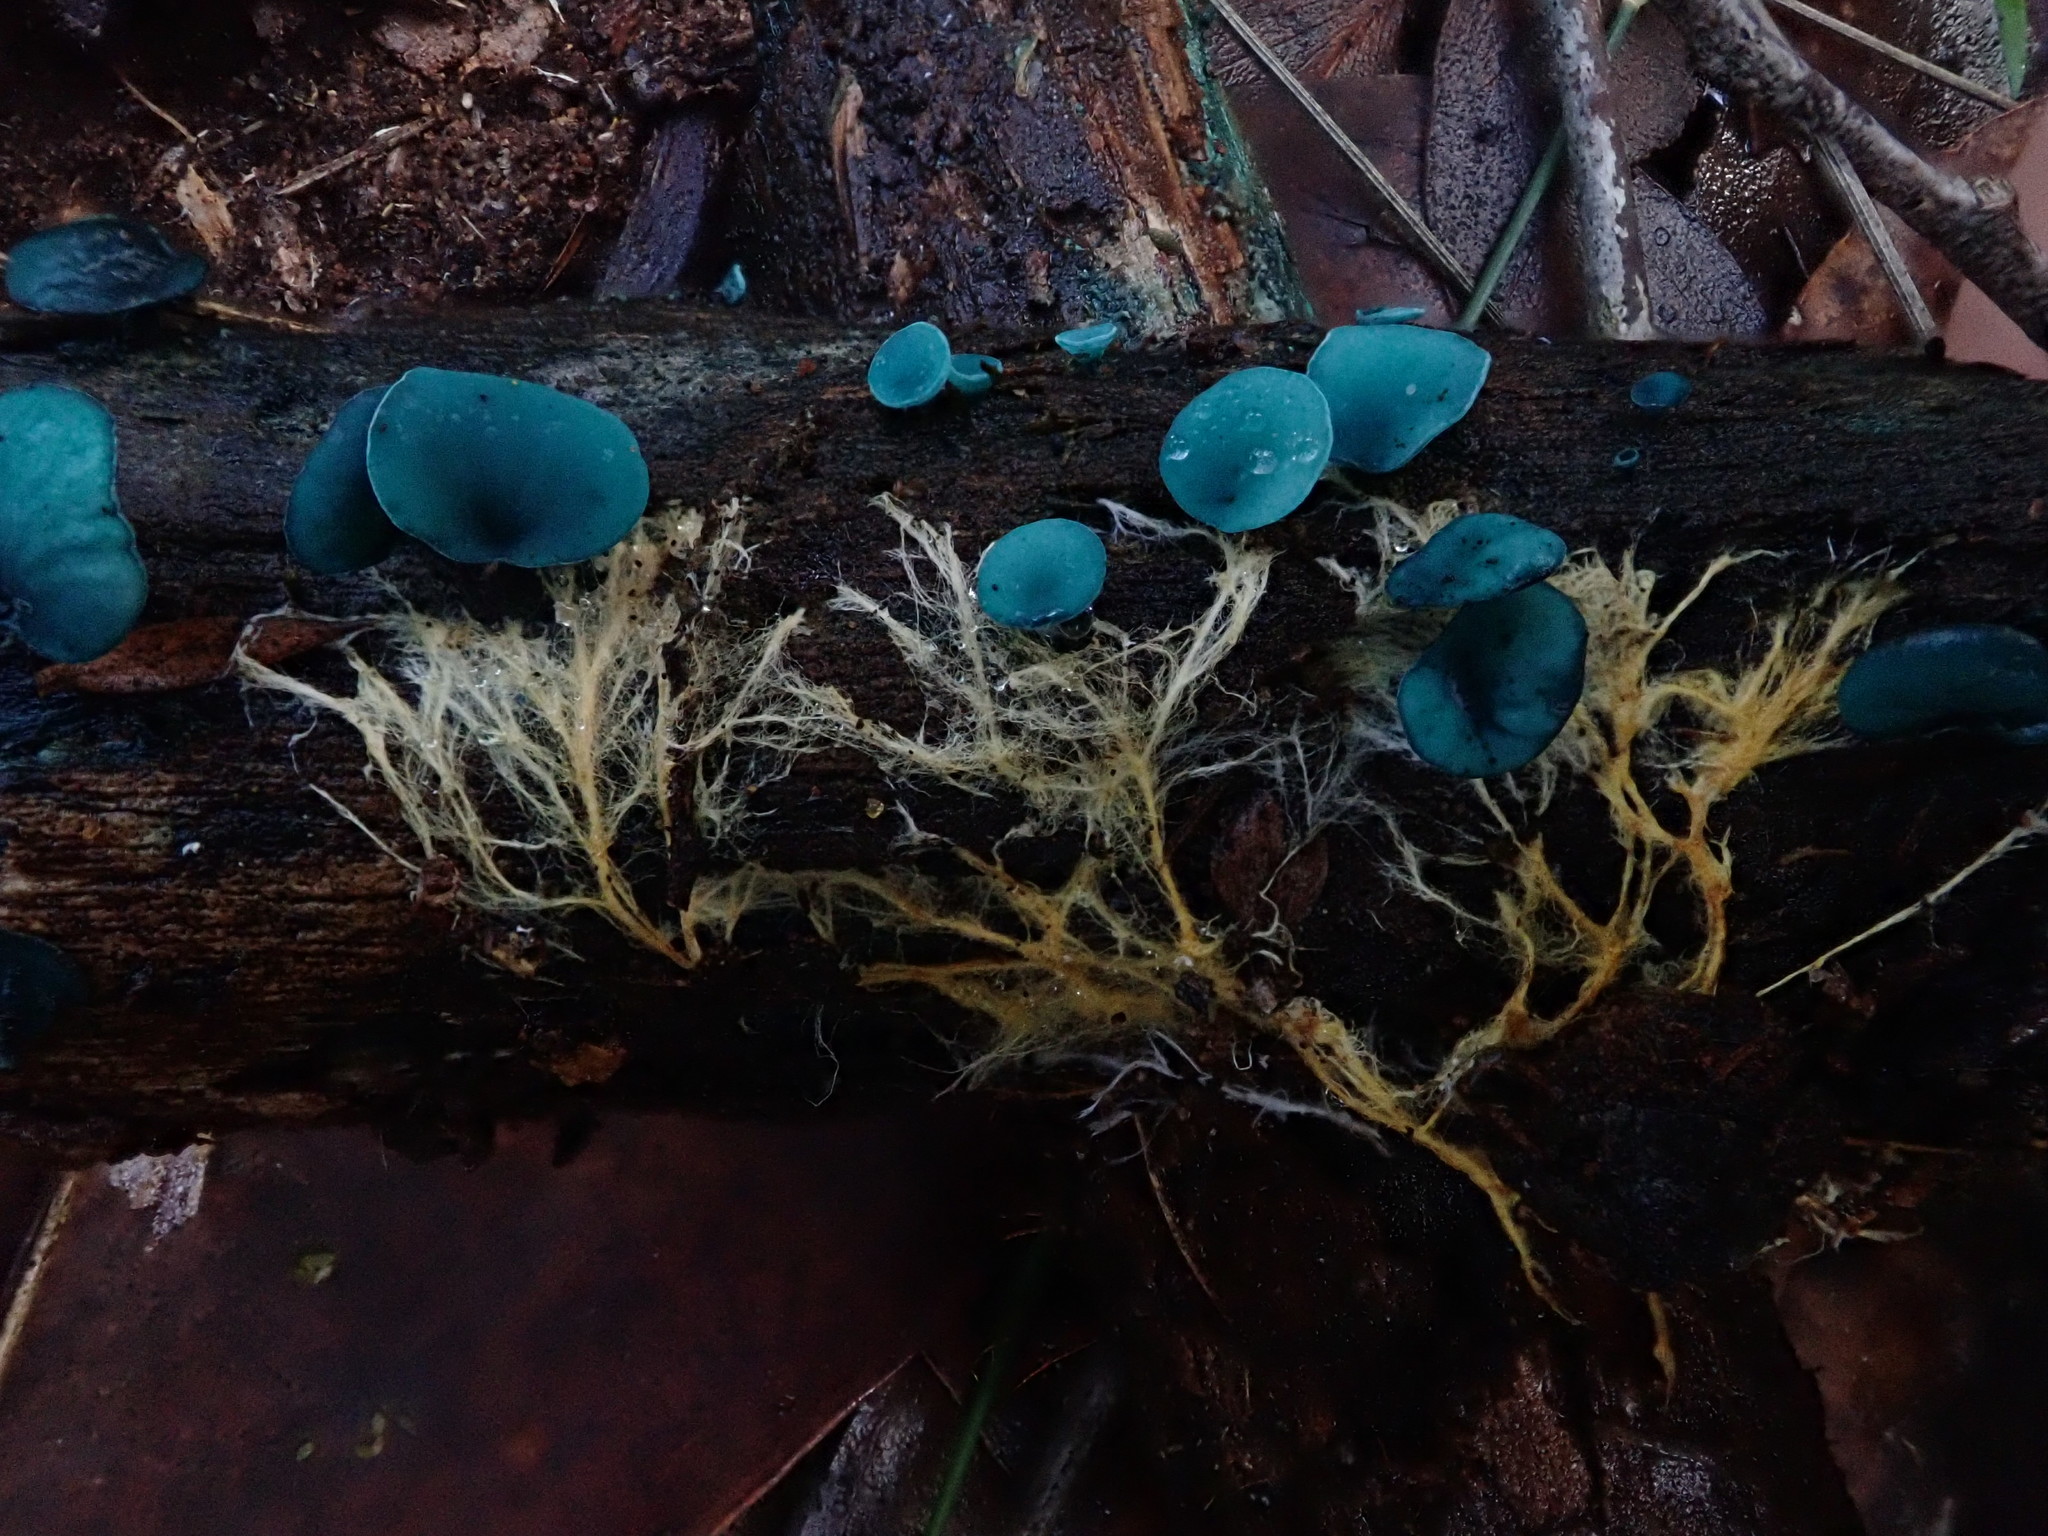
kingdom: Fungi
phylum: Ascomycota
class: Leotiomycetes
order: Helotiales
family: Chlorociboriaceae
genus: Chlorociboria
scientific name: Chlorociboria
